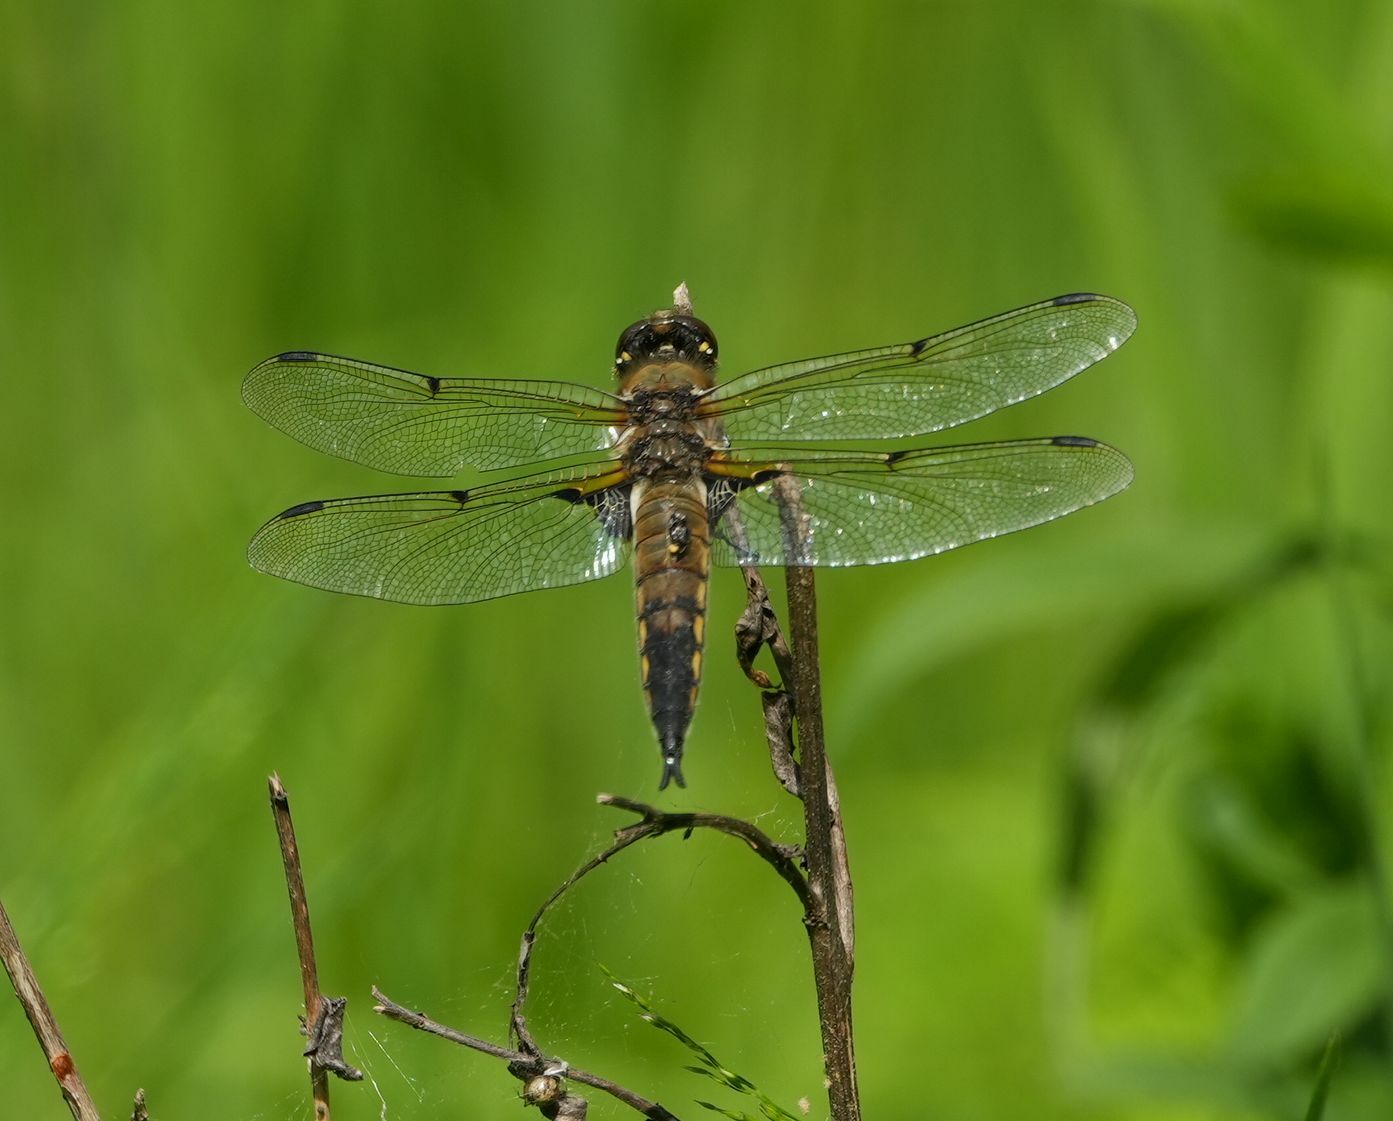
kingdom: Animalia
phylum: Arthropoda
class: Insecta
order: Odonata
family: Libellulidae
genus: Libellula
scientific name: Libellula quadrimaculata
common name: Four-spotted chaser
